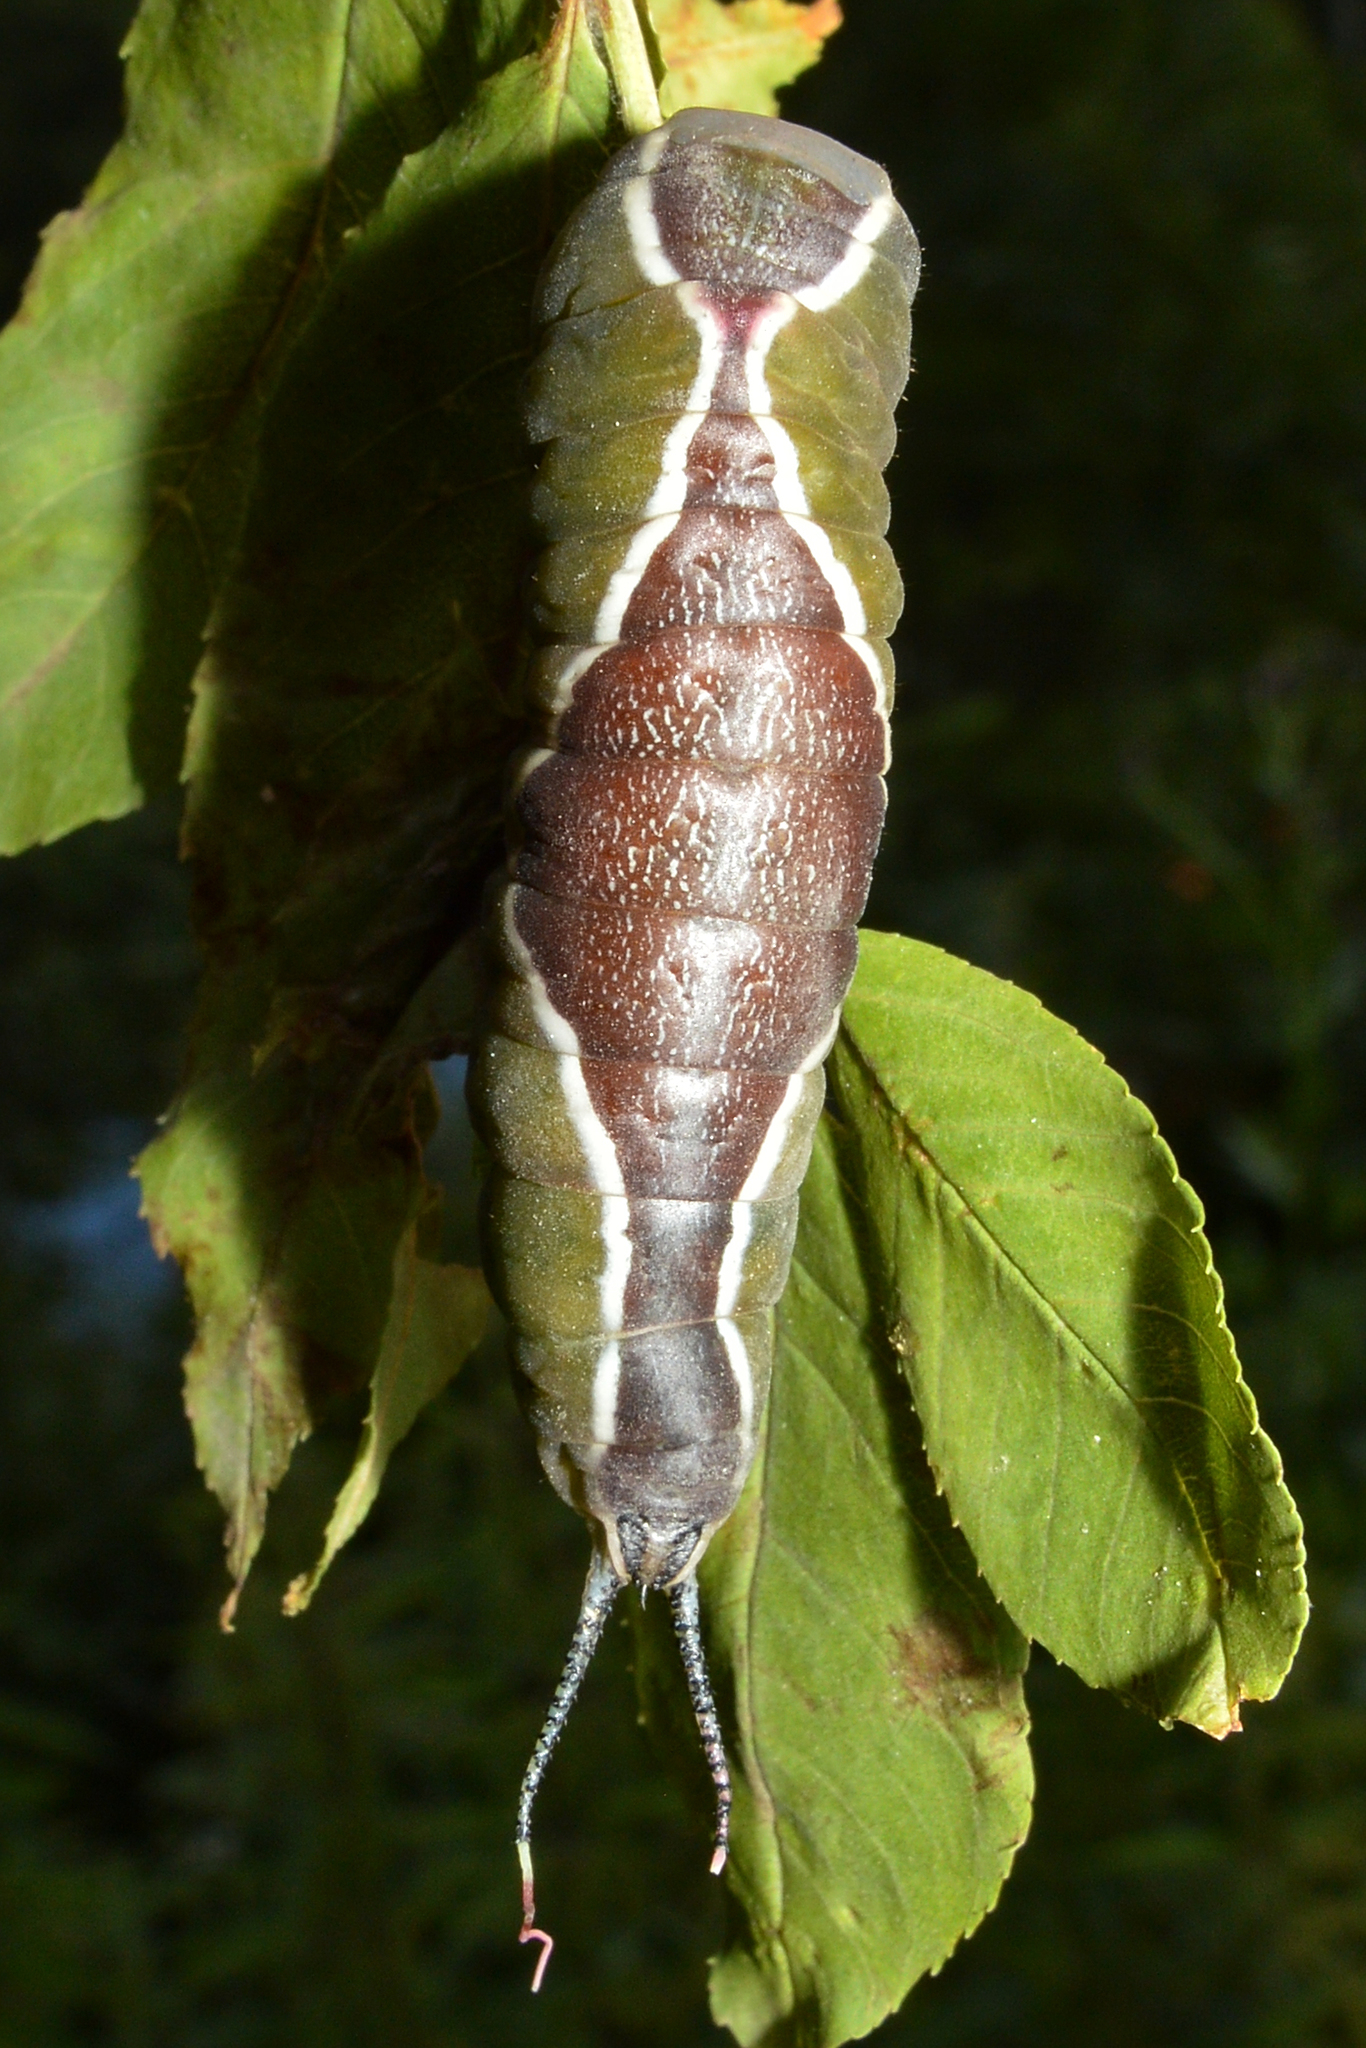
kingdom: Animalia
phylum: Arthropoda
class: Insecta
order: Lepidoptera
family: Notodontidae
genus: Cerura
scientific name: Cerura vinula
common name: Puss moth
